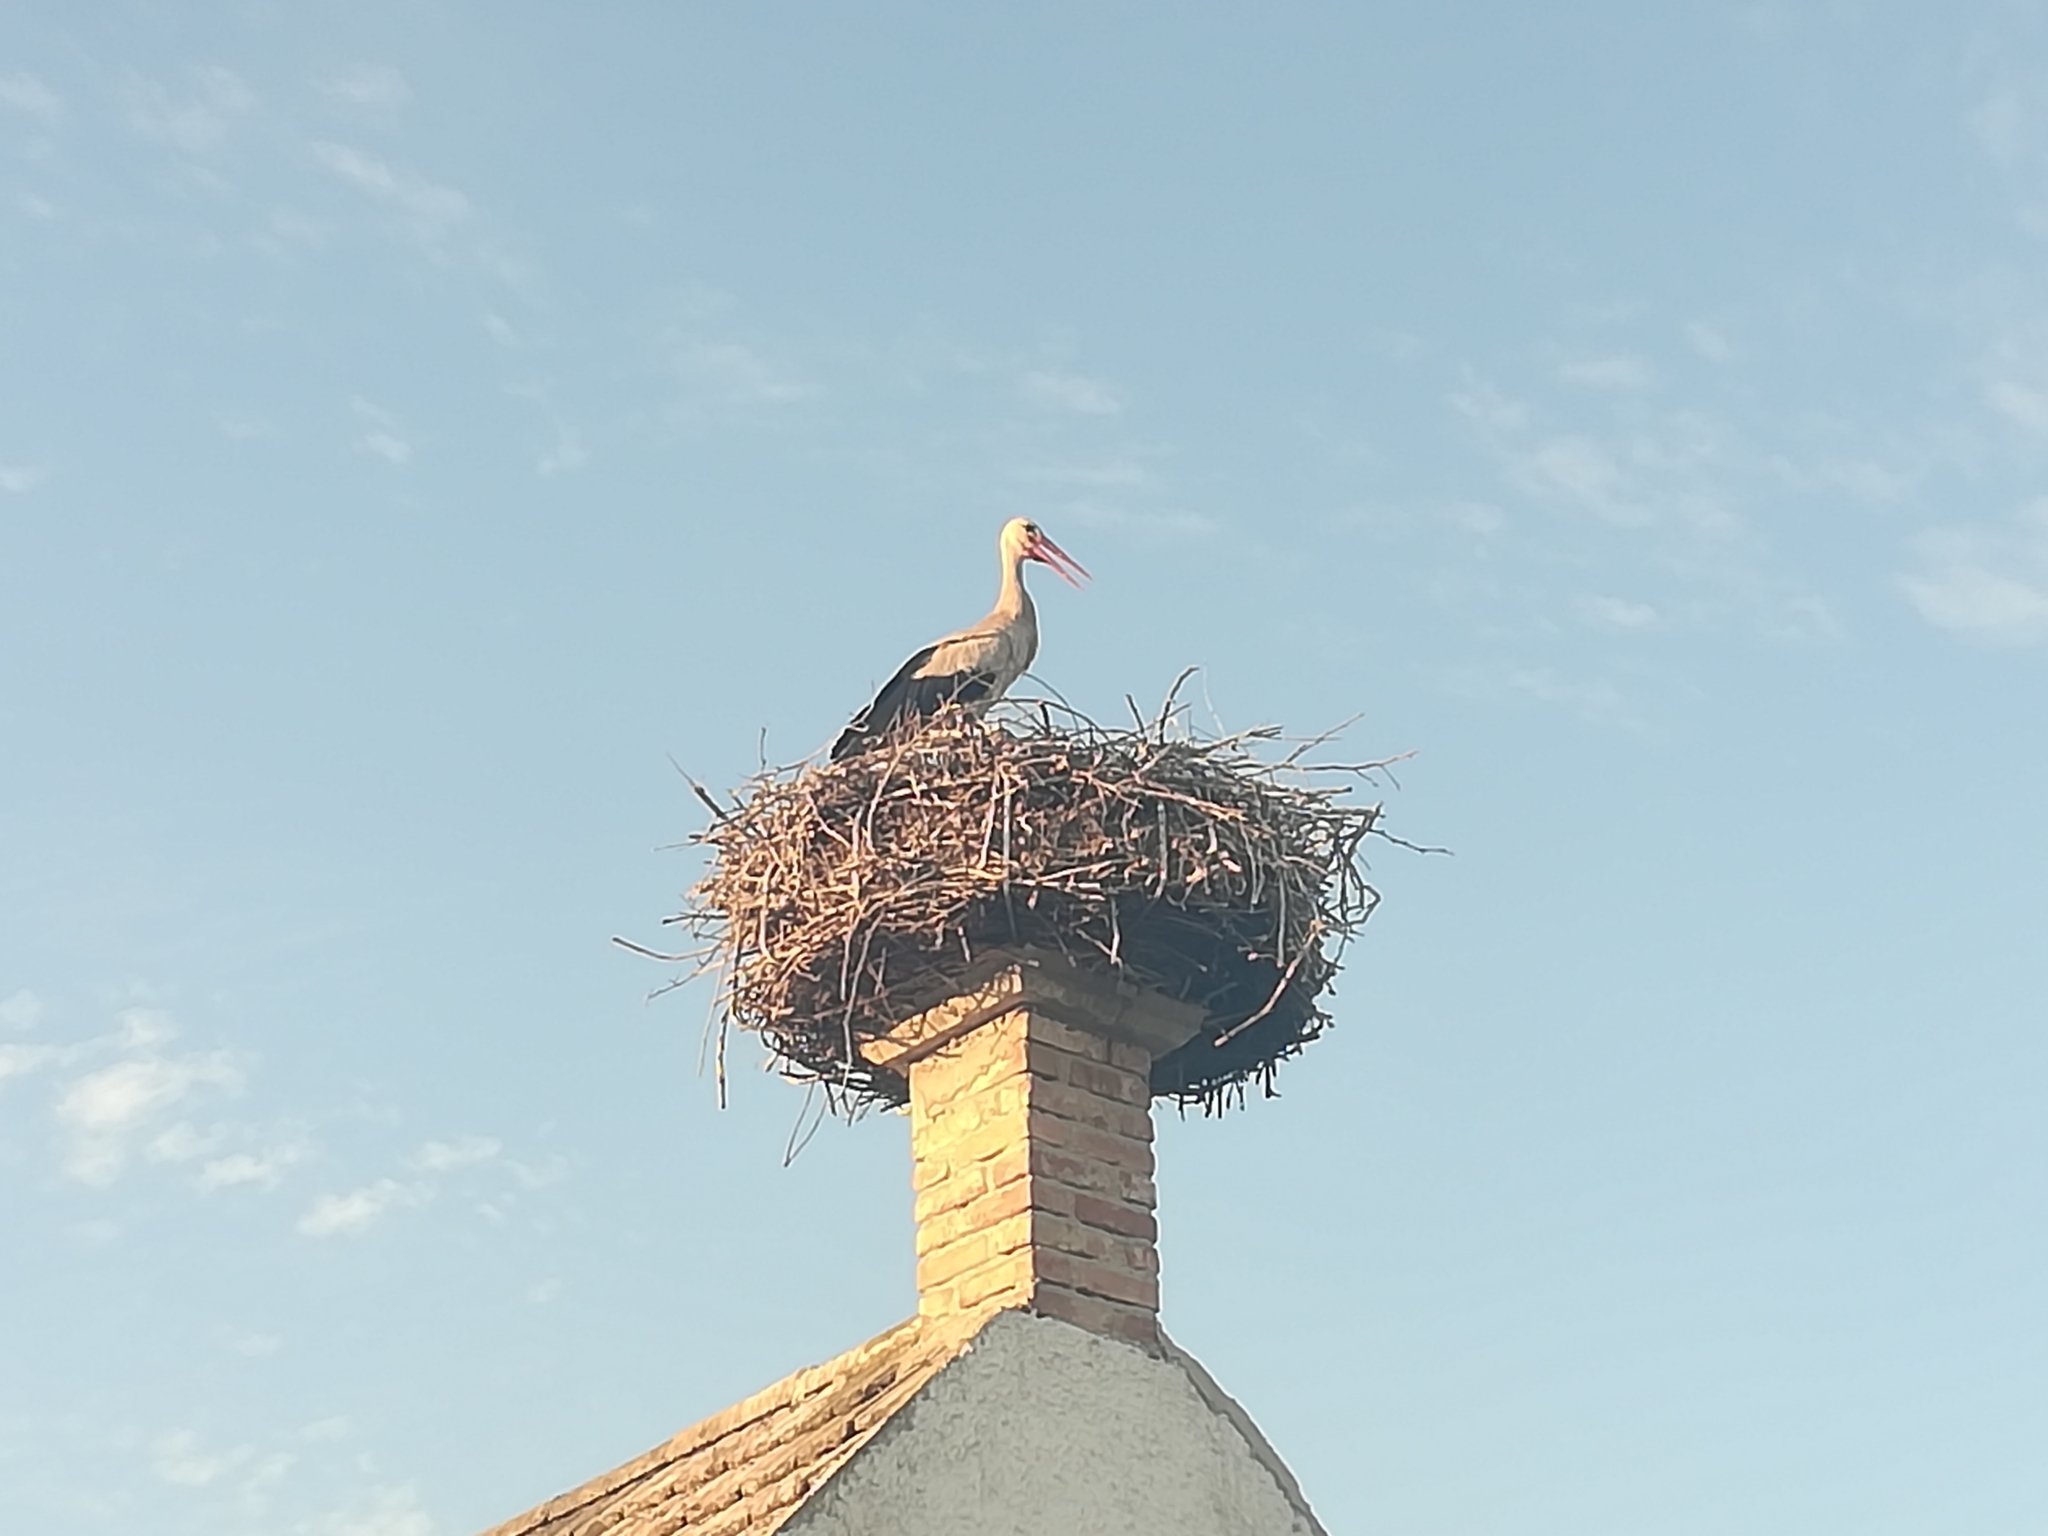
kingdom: Animalia
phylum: Chordata
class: Aves
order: Ciconiiformes
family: Ciconiidae
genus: Ciconia
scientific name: Ciconia ciconia
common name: White stork
